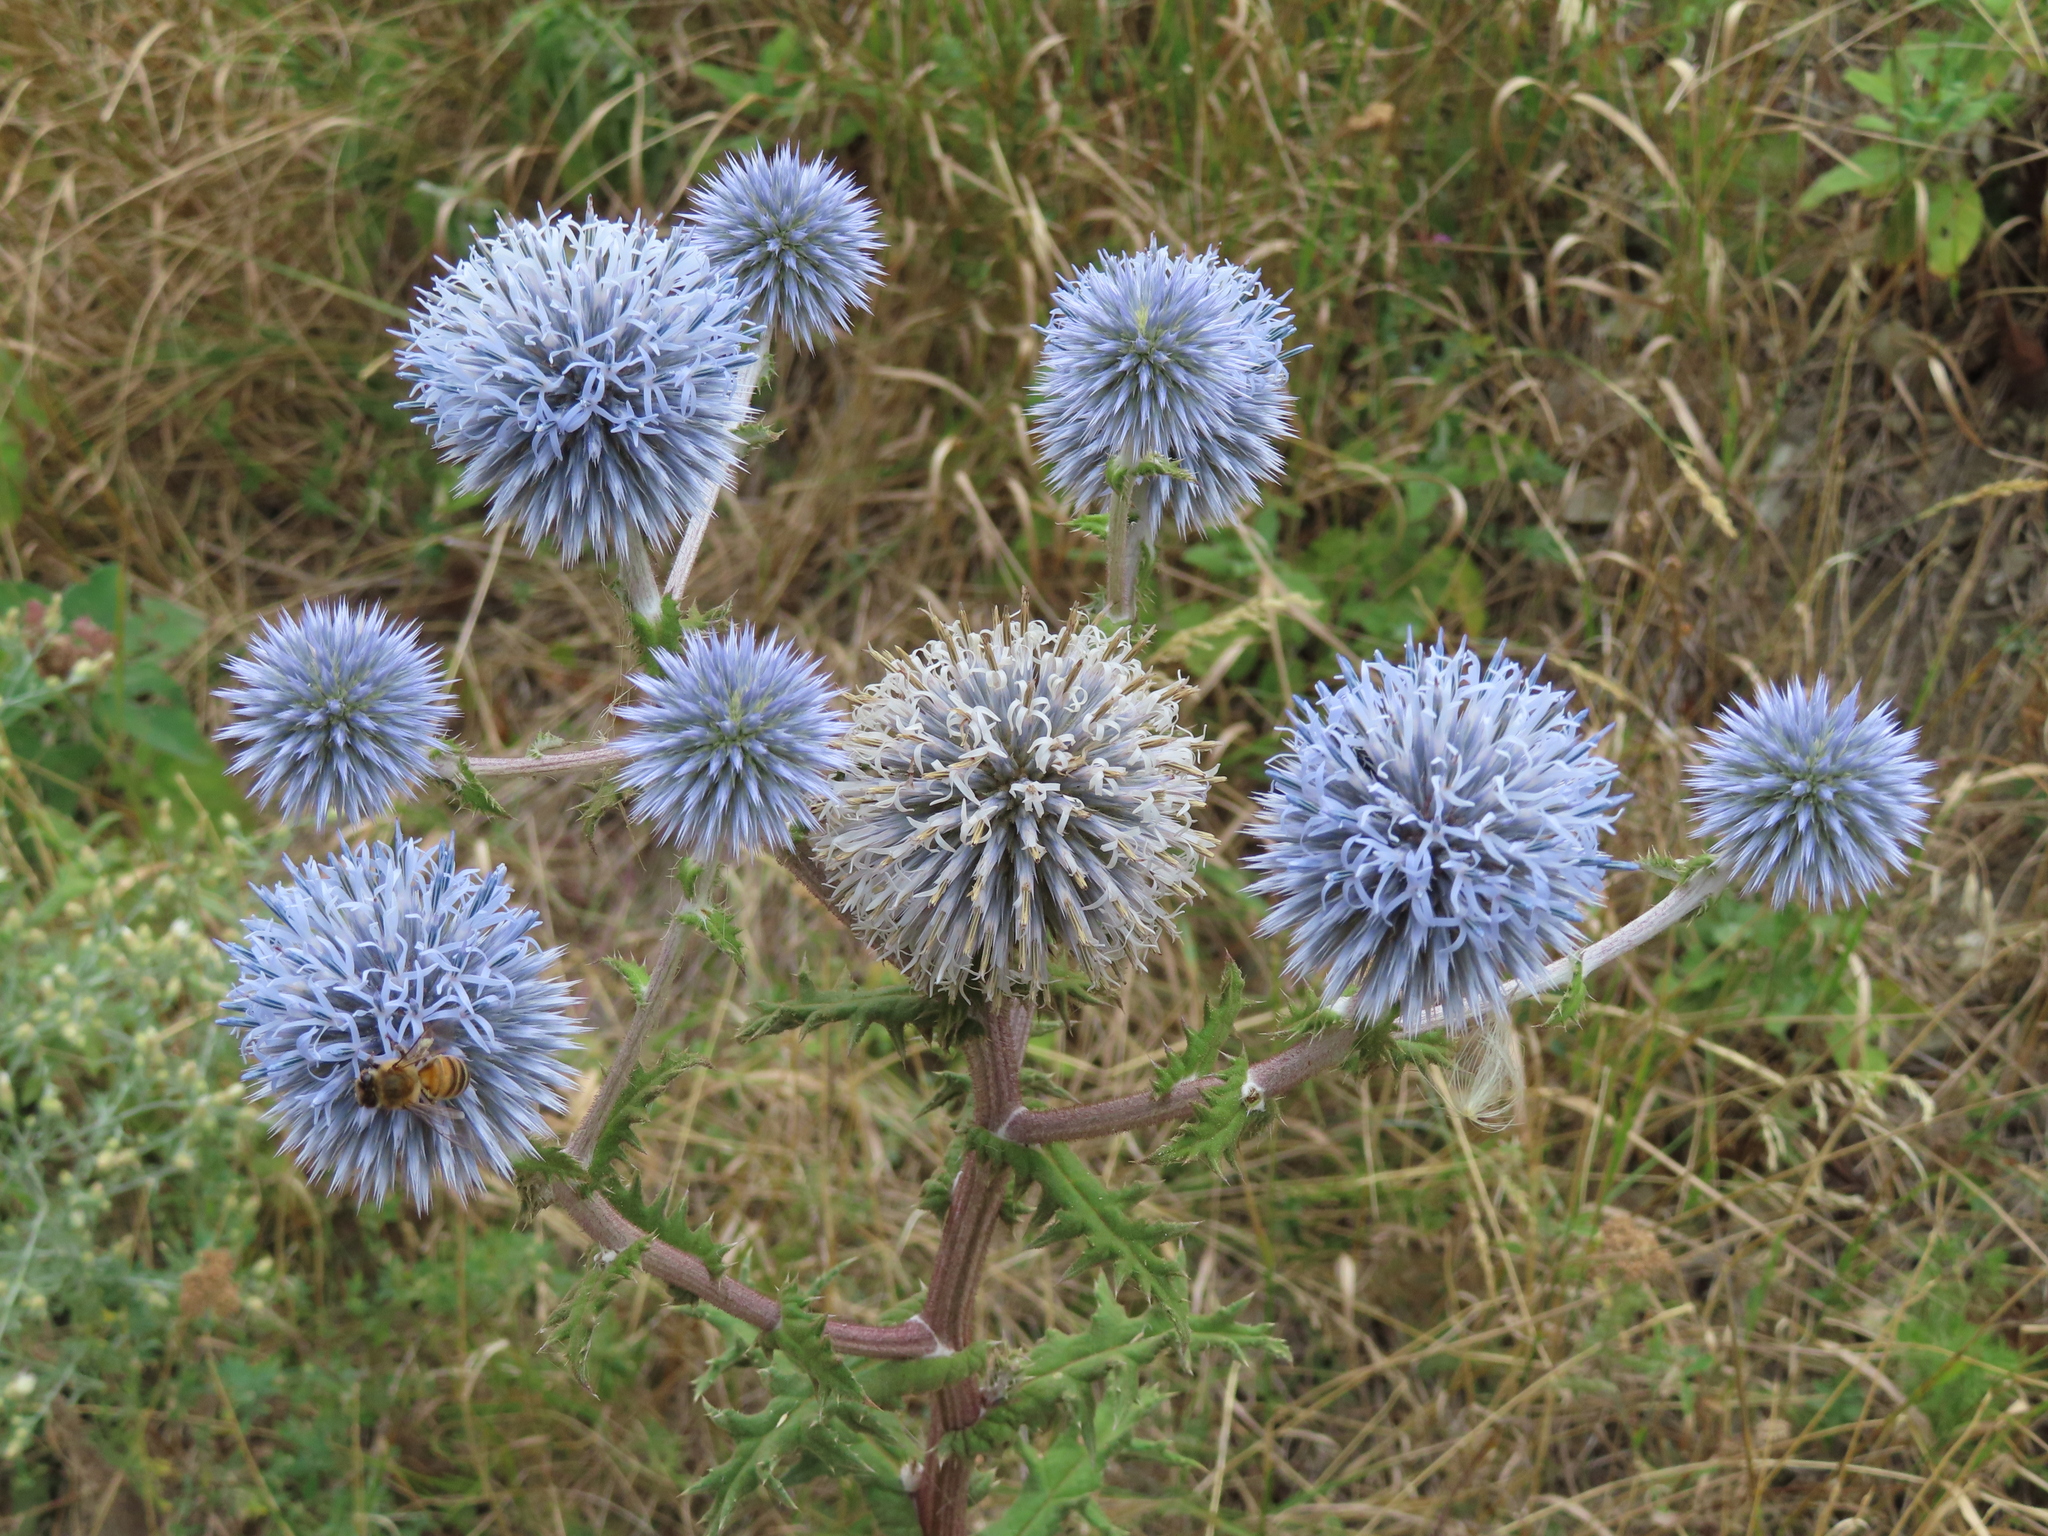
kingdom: Plantae
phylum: Tracheophyta
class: Magnoliopsida
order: Asterales
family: Asteraceae
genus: Echinops
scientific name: Echinops sphaerocephalus
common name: Glandular globe-thistle
